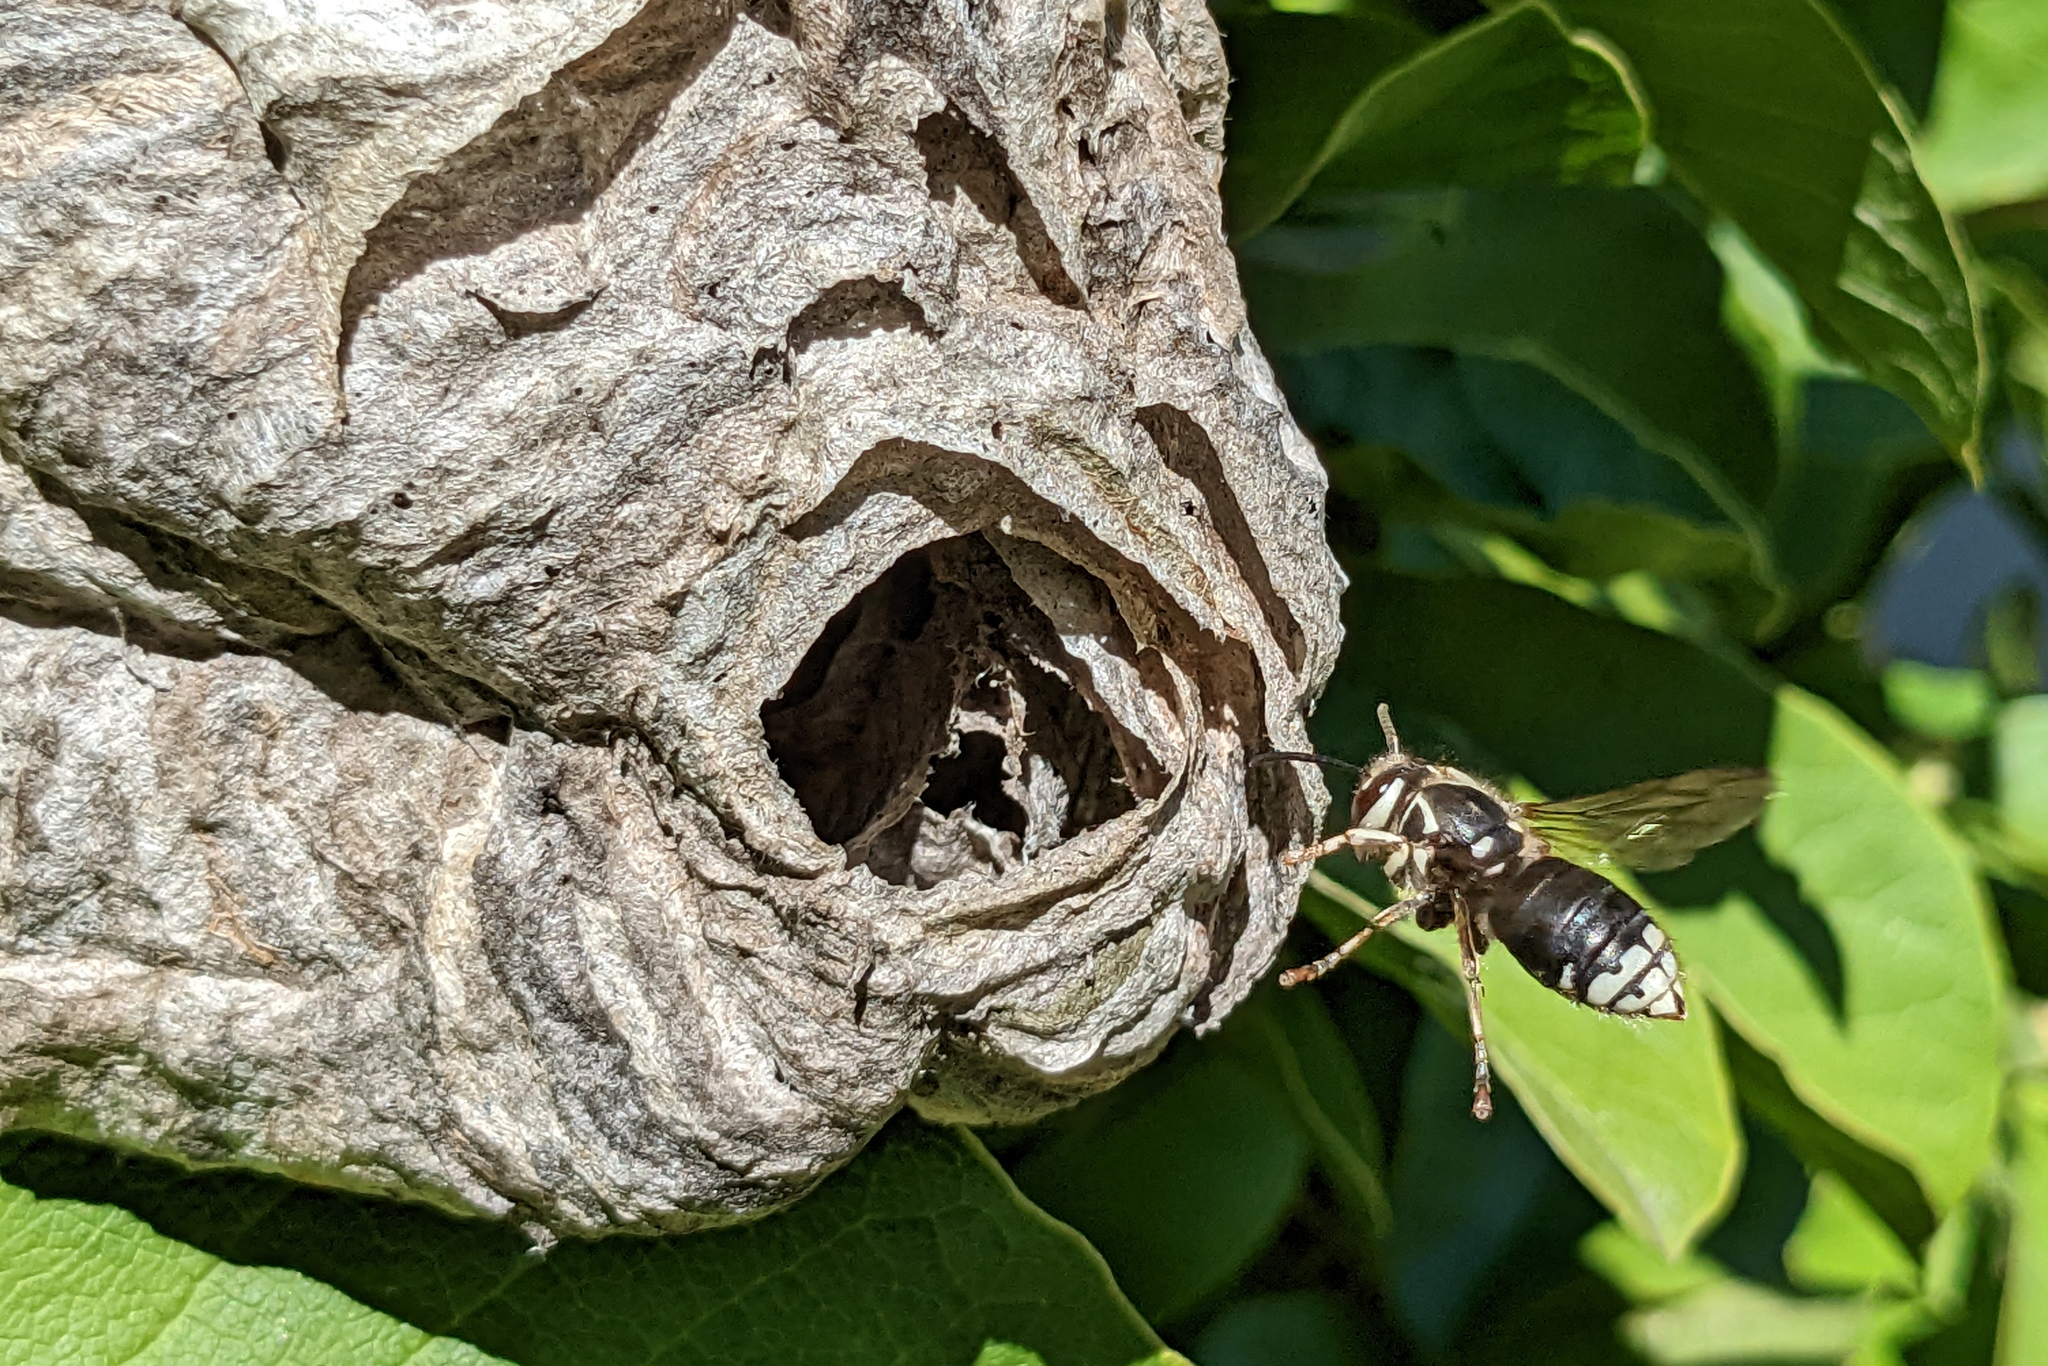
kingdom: Animalia
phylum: Arthropoda
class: Insecta
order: Hymenoptera
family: Vespidae
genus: Dolichovespula
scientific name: Dolichovespula maculata
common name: Bald-faced hornet
